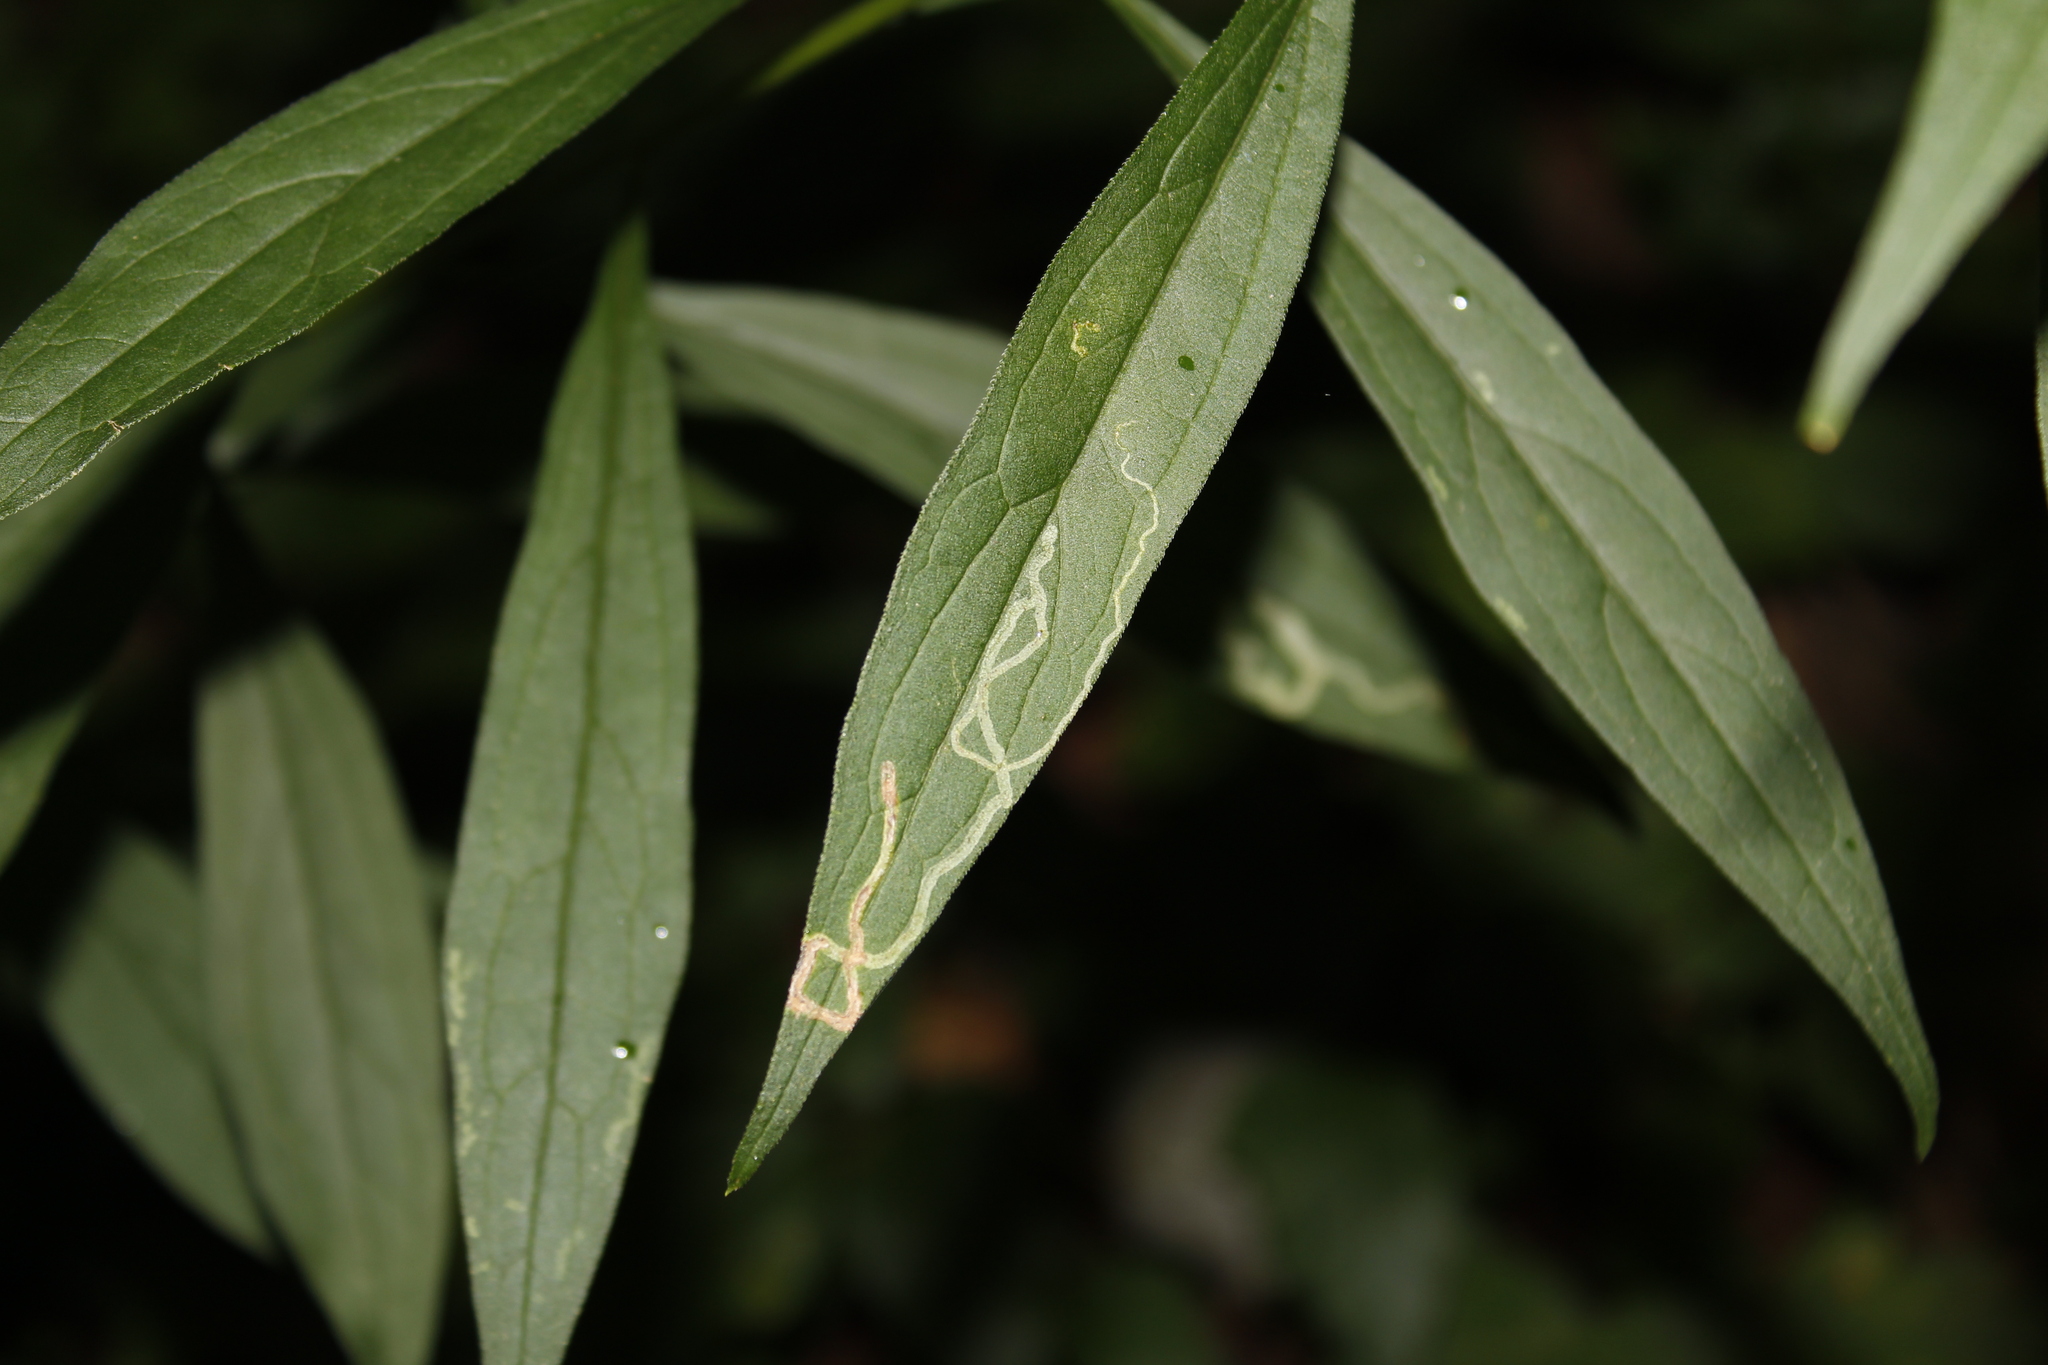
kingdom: Animalia
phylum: Arthropoda
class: Insecta
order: Diptera
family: Agromyzidae
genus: Ophiomyia
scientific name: Ophiomyia maura
